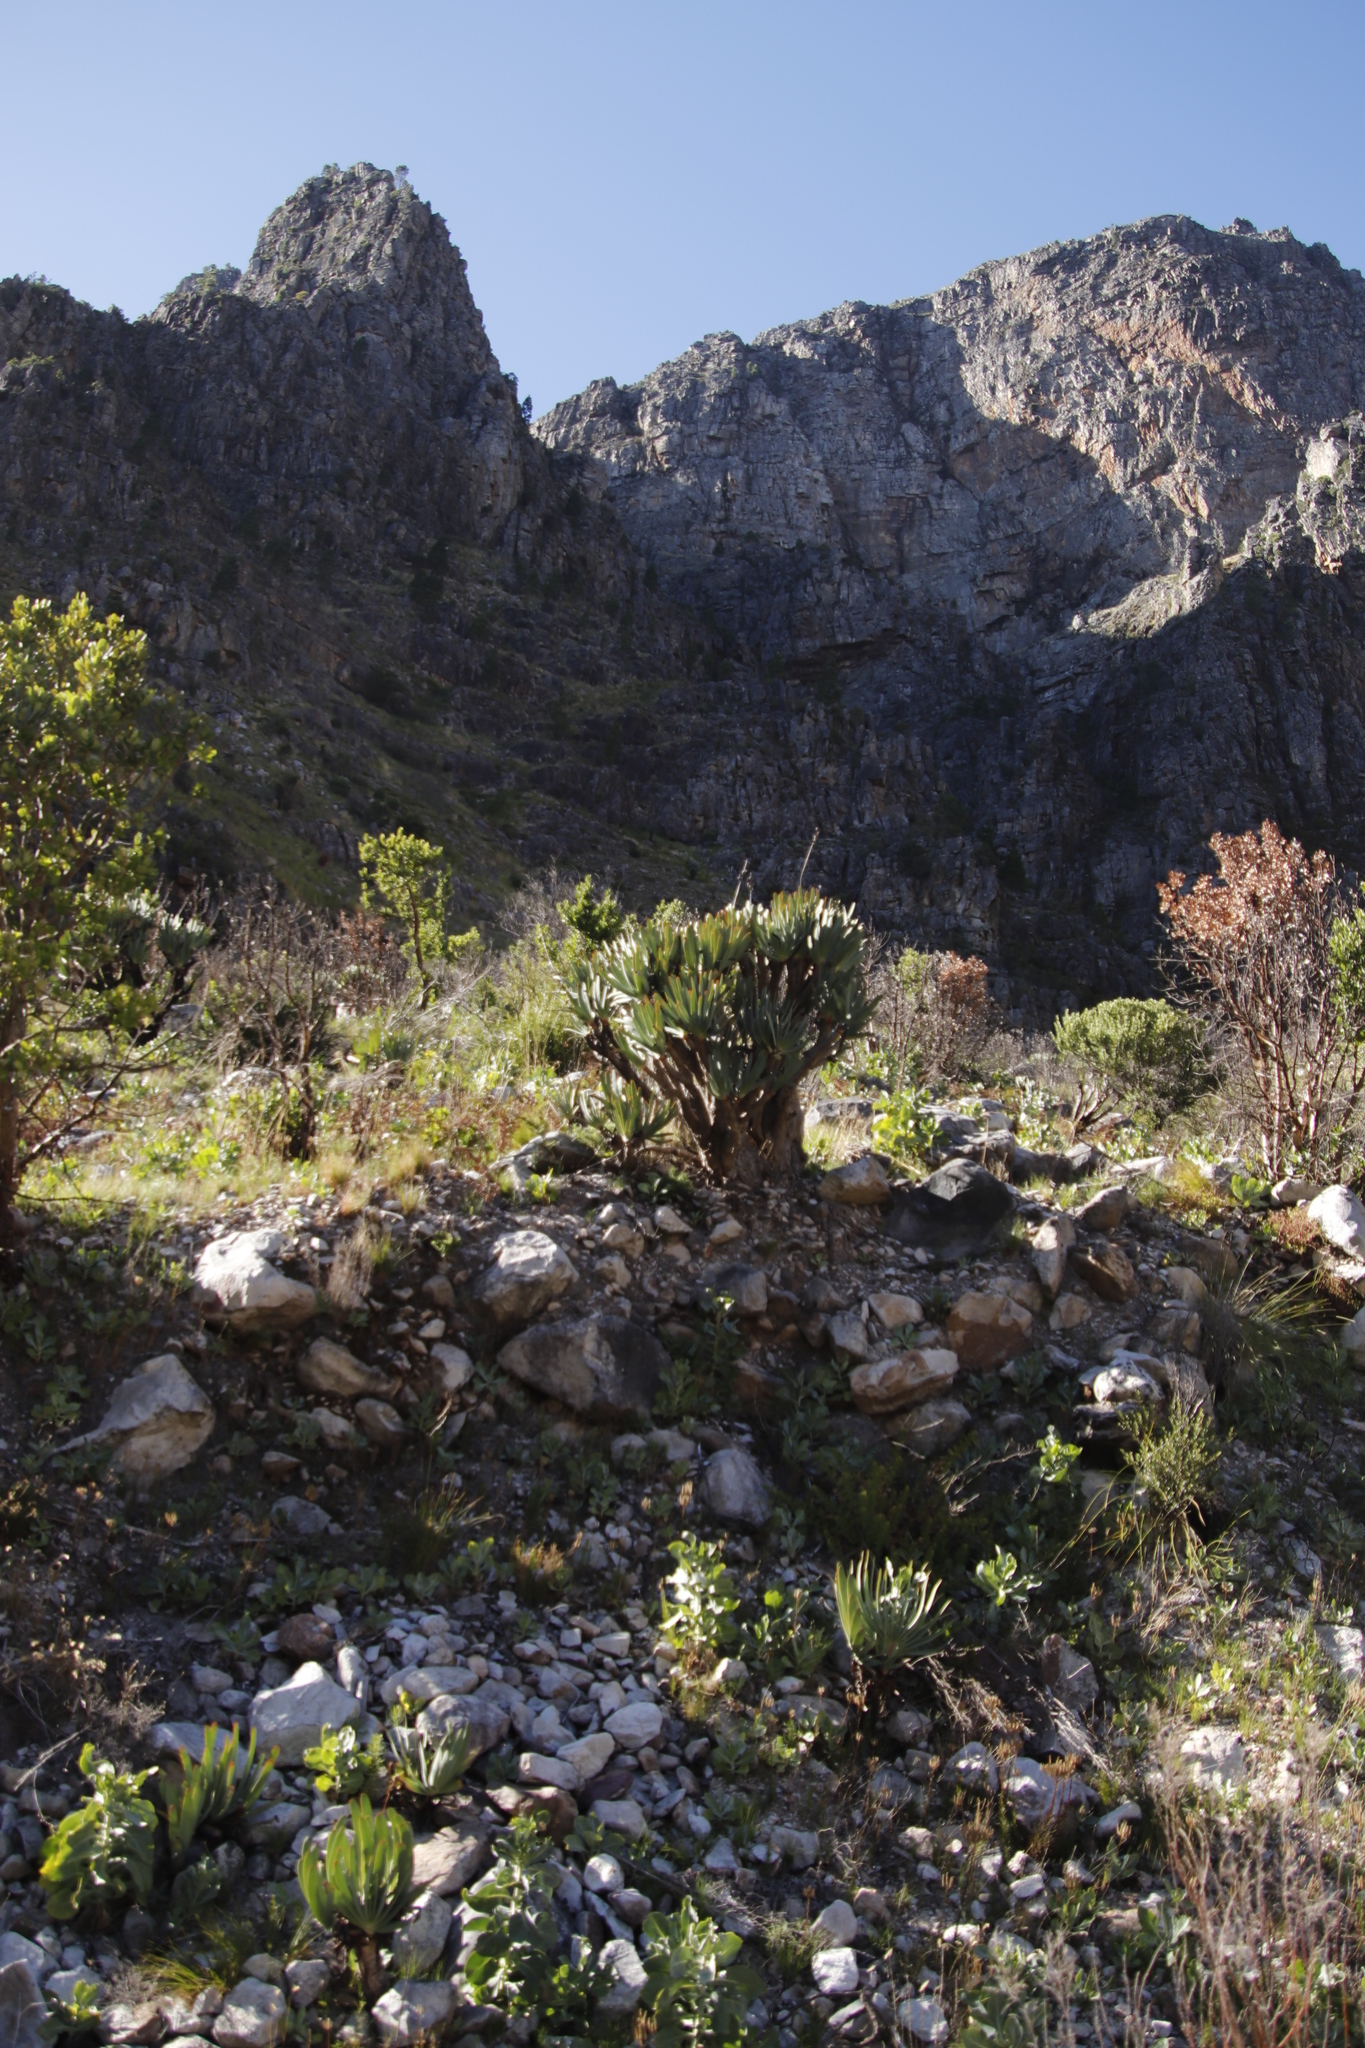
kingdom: Plantae
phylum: Tracheophyta
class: Liliopsida
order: Asparagales
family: Asphodelaceae
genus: Kumara
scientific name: Kumara plicatilis
